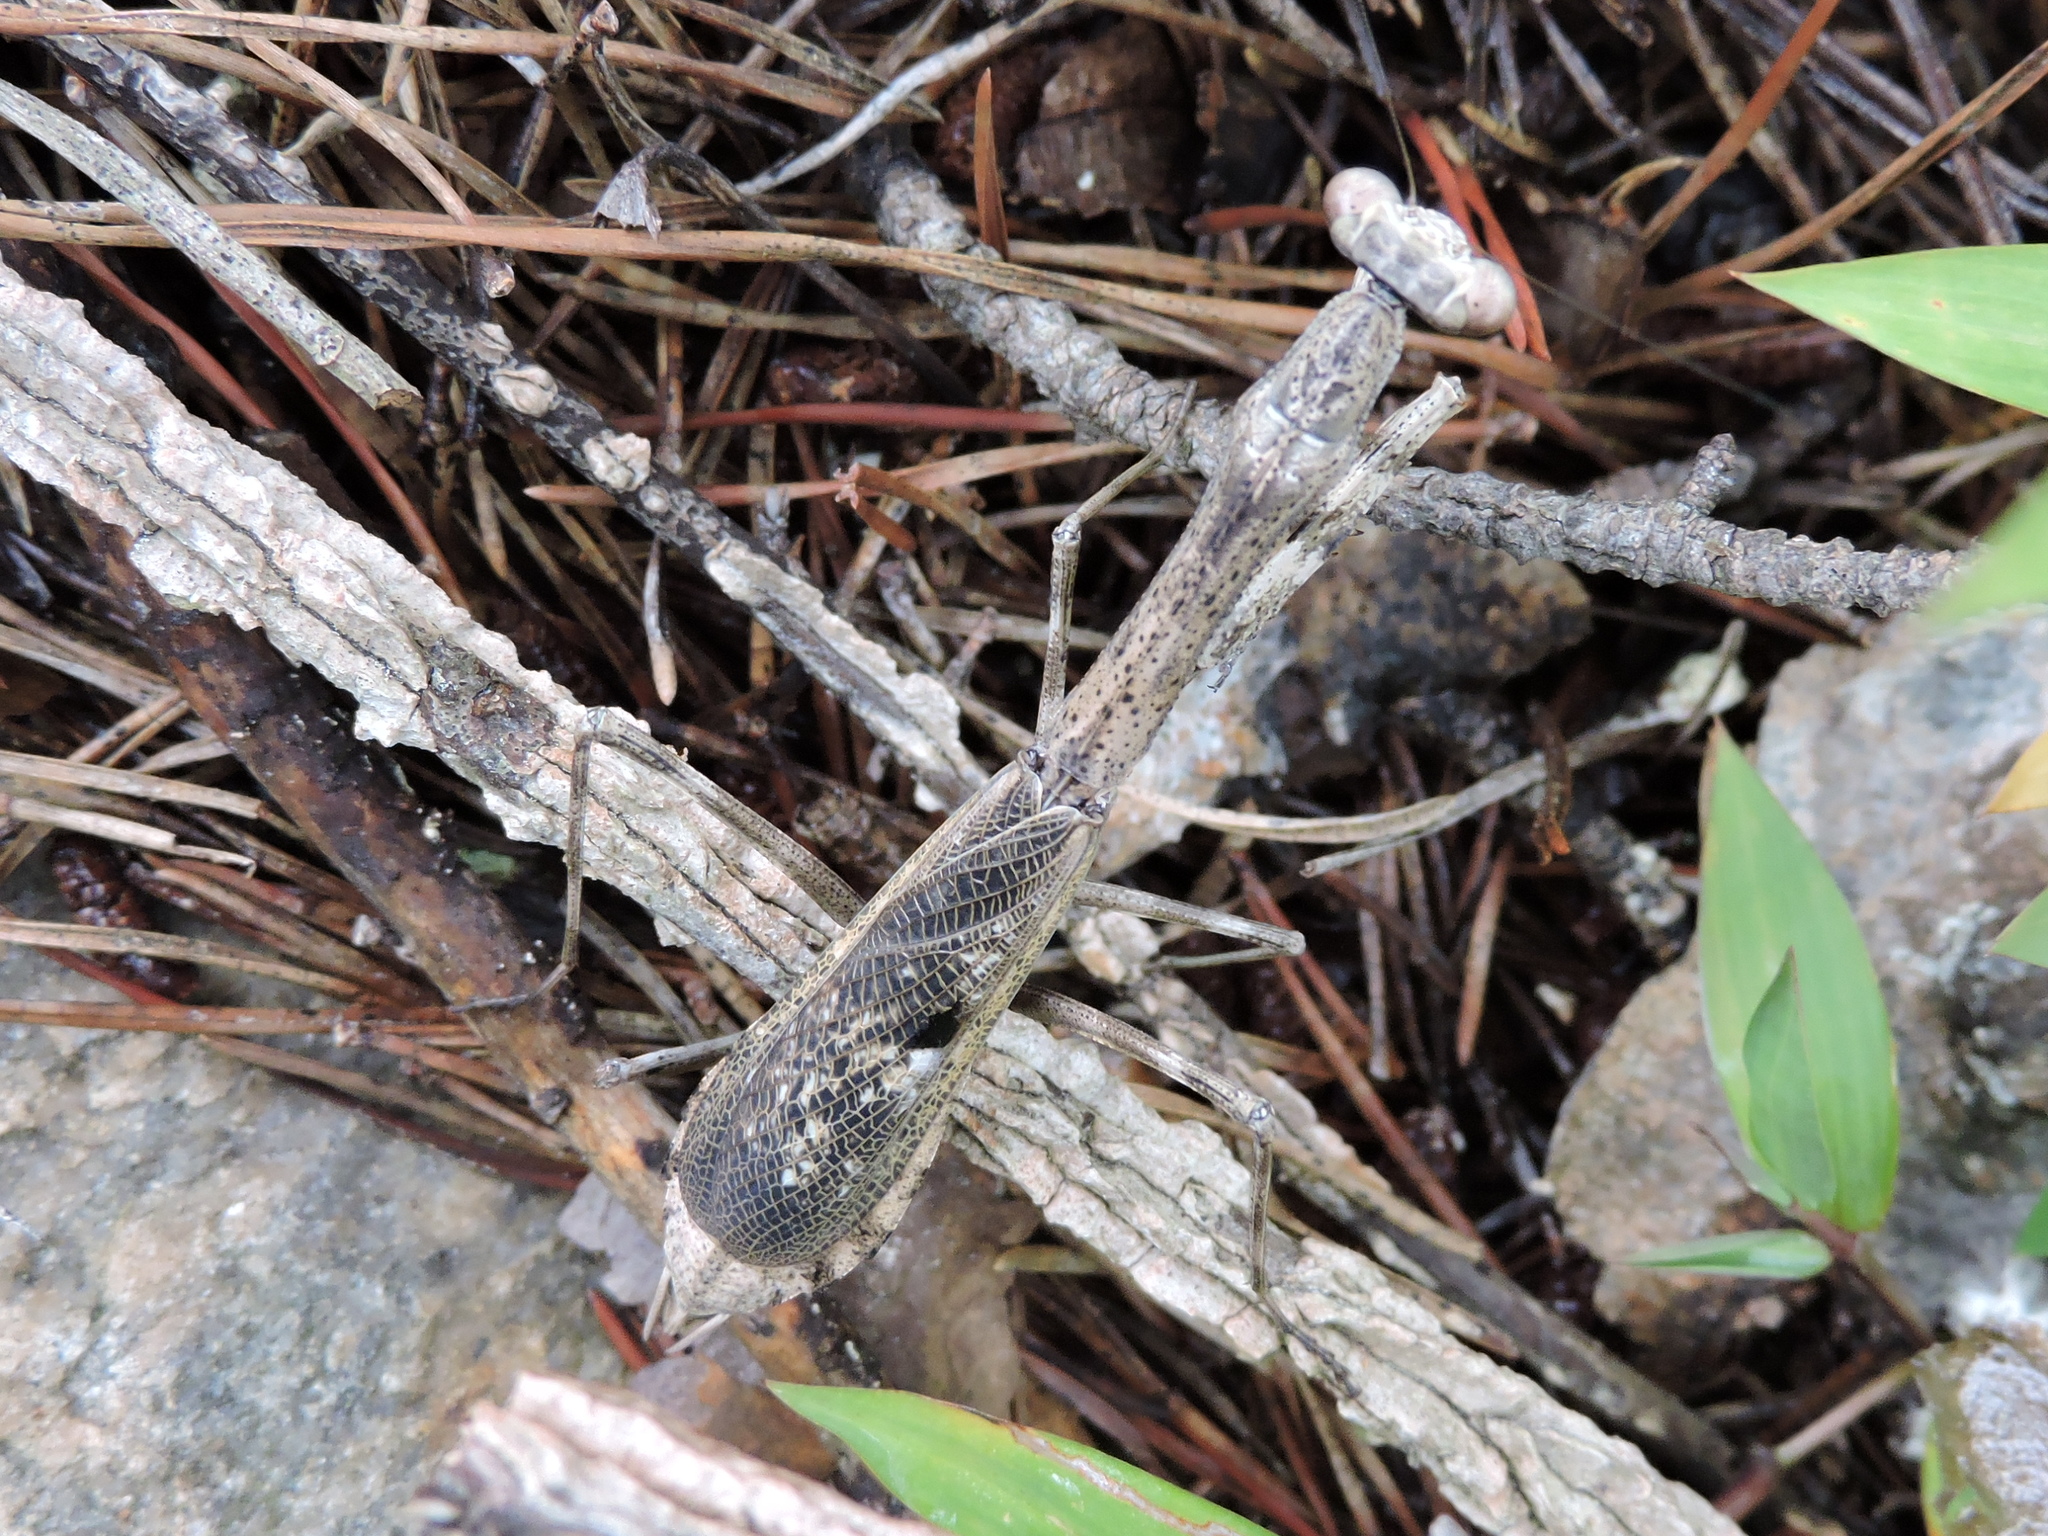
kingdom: Animalia
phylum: Arthropoda
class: Insecta
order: Mantodea
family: Mantidae
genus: Stagmomantis
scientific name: Stagmomantis carolina
